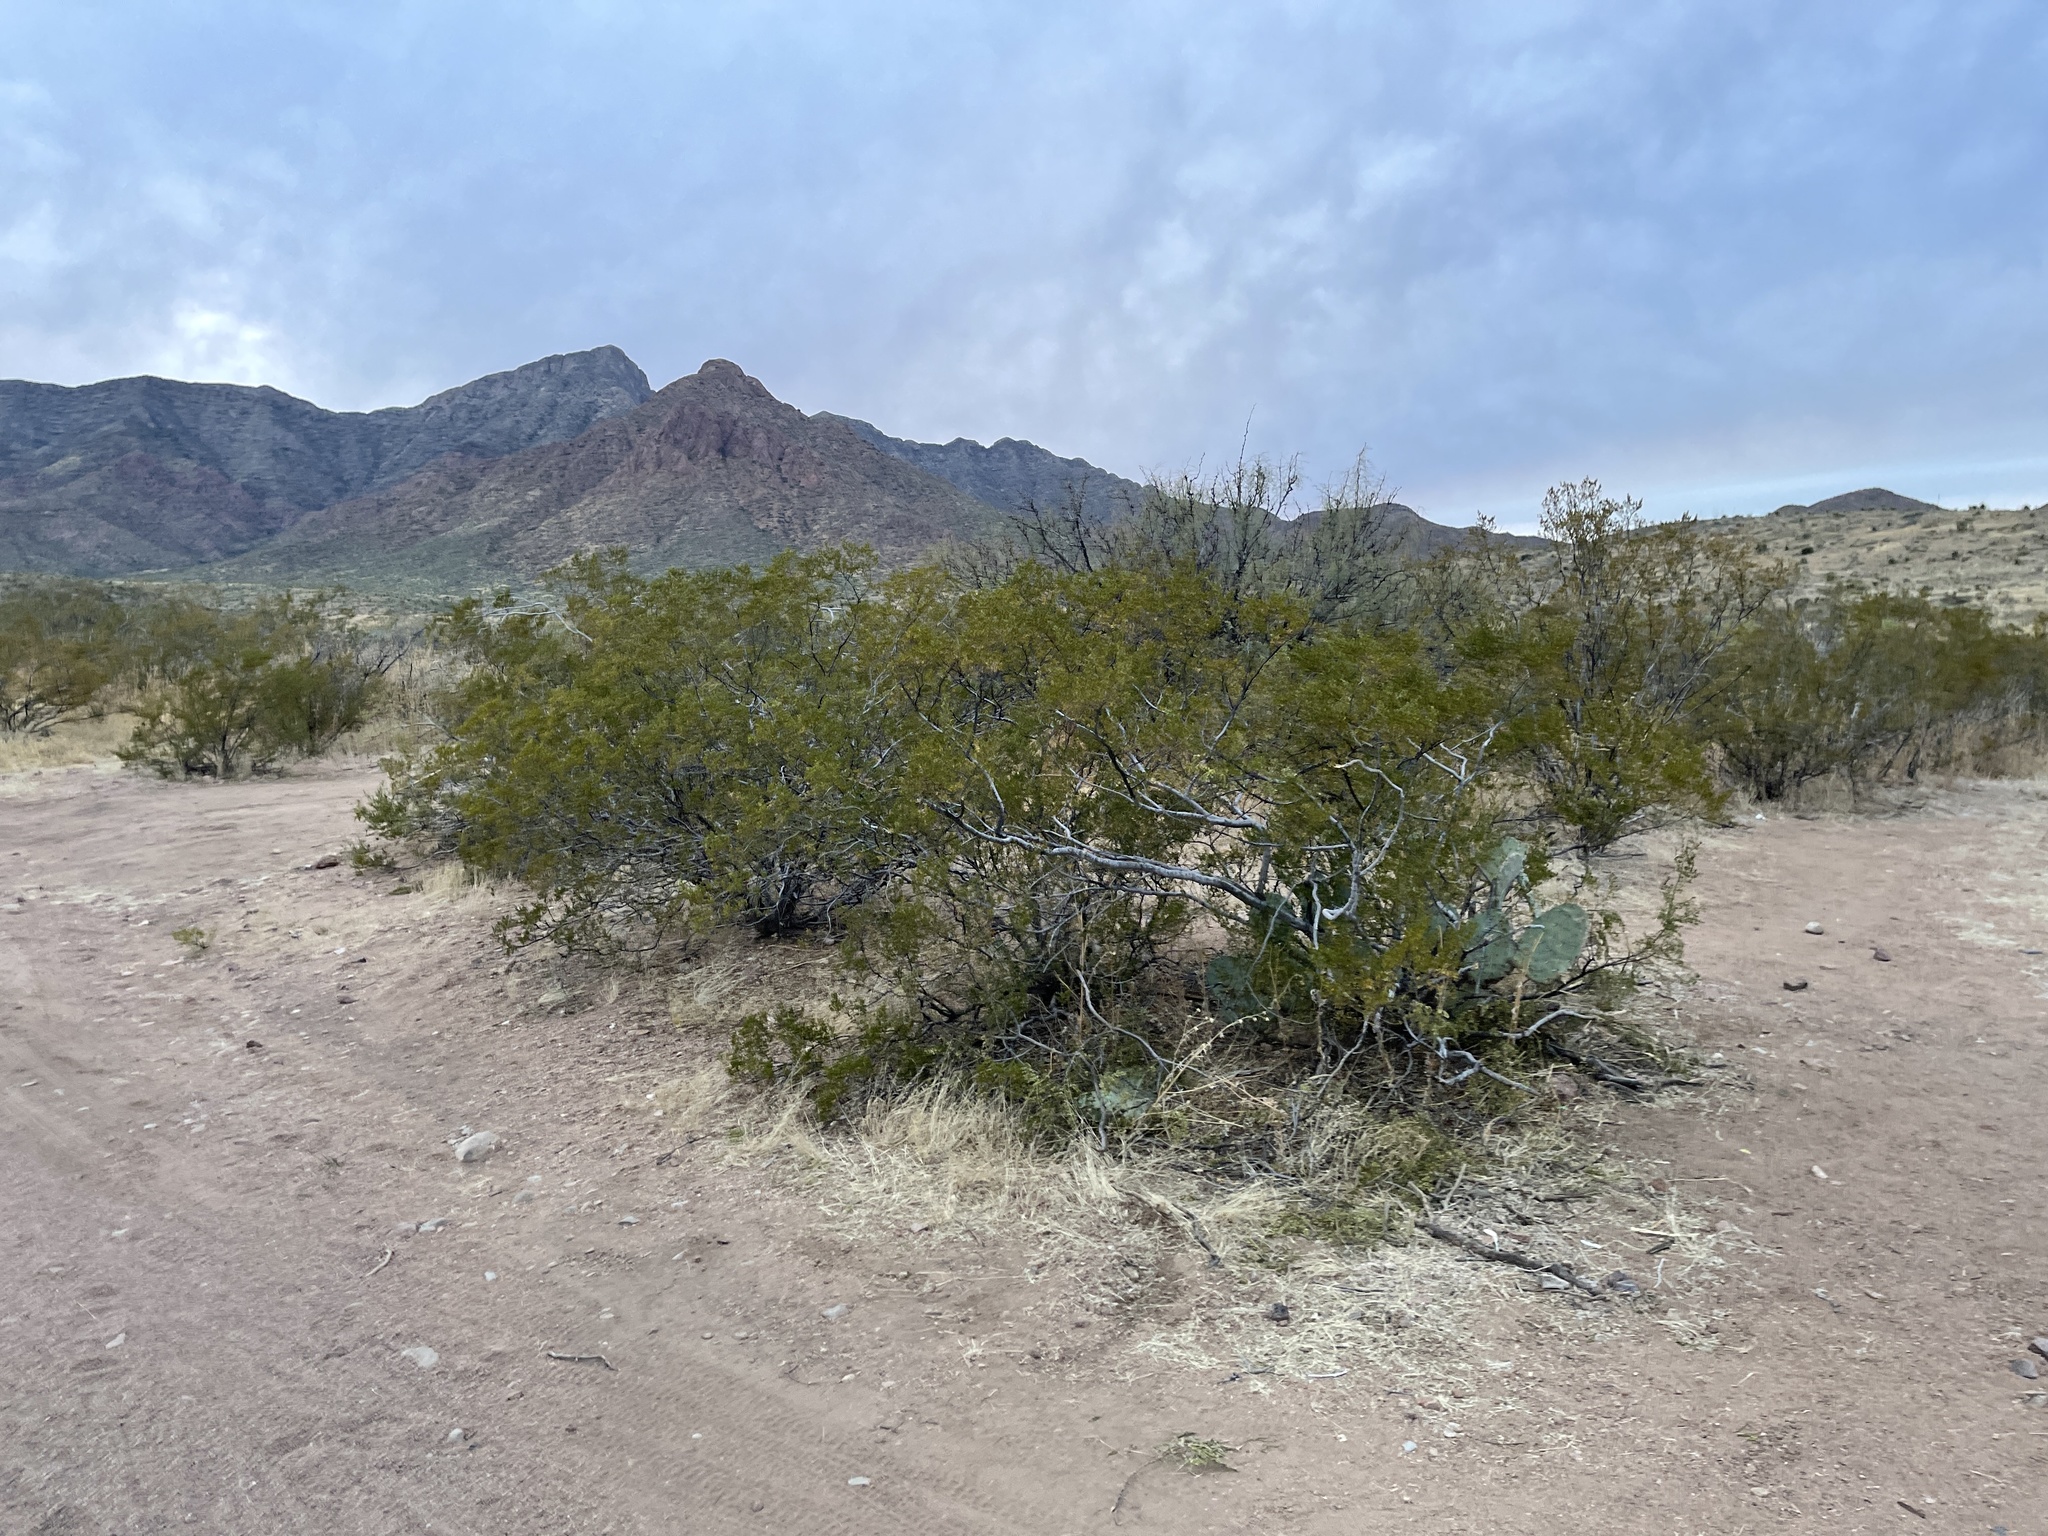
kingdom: Plantae
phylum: Tracheophyta
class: Magnoliopsida
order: Zygophyllales
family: Zygophyllaceae
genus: Larrea
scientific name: Larrea tridentata
